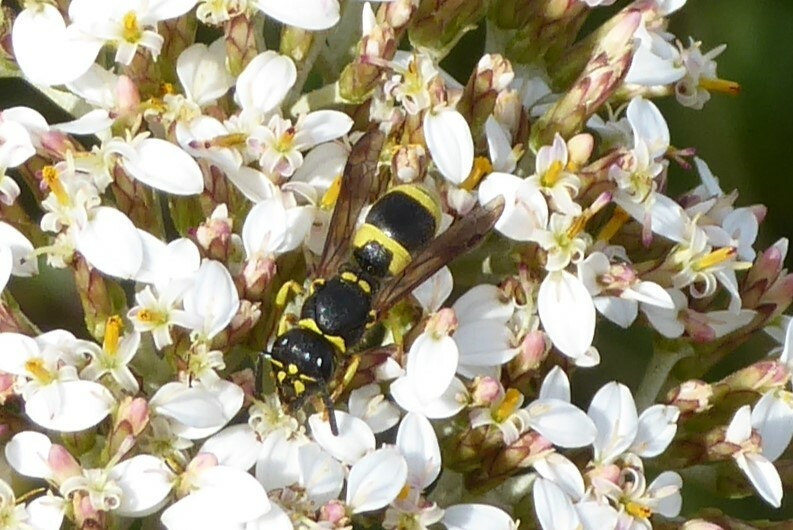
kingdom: Animalia
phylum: Arthropoda
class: Insecta
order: Hymenoptera
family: Vespidae
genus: Ancistrocerus
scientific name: Ancistrocerus gazella
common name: European tube wasp
